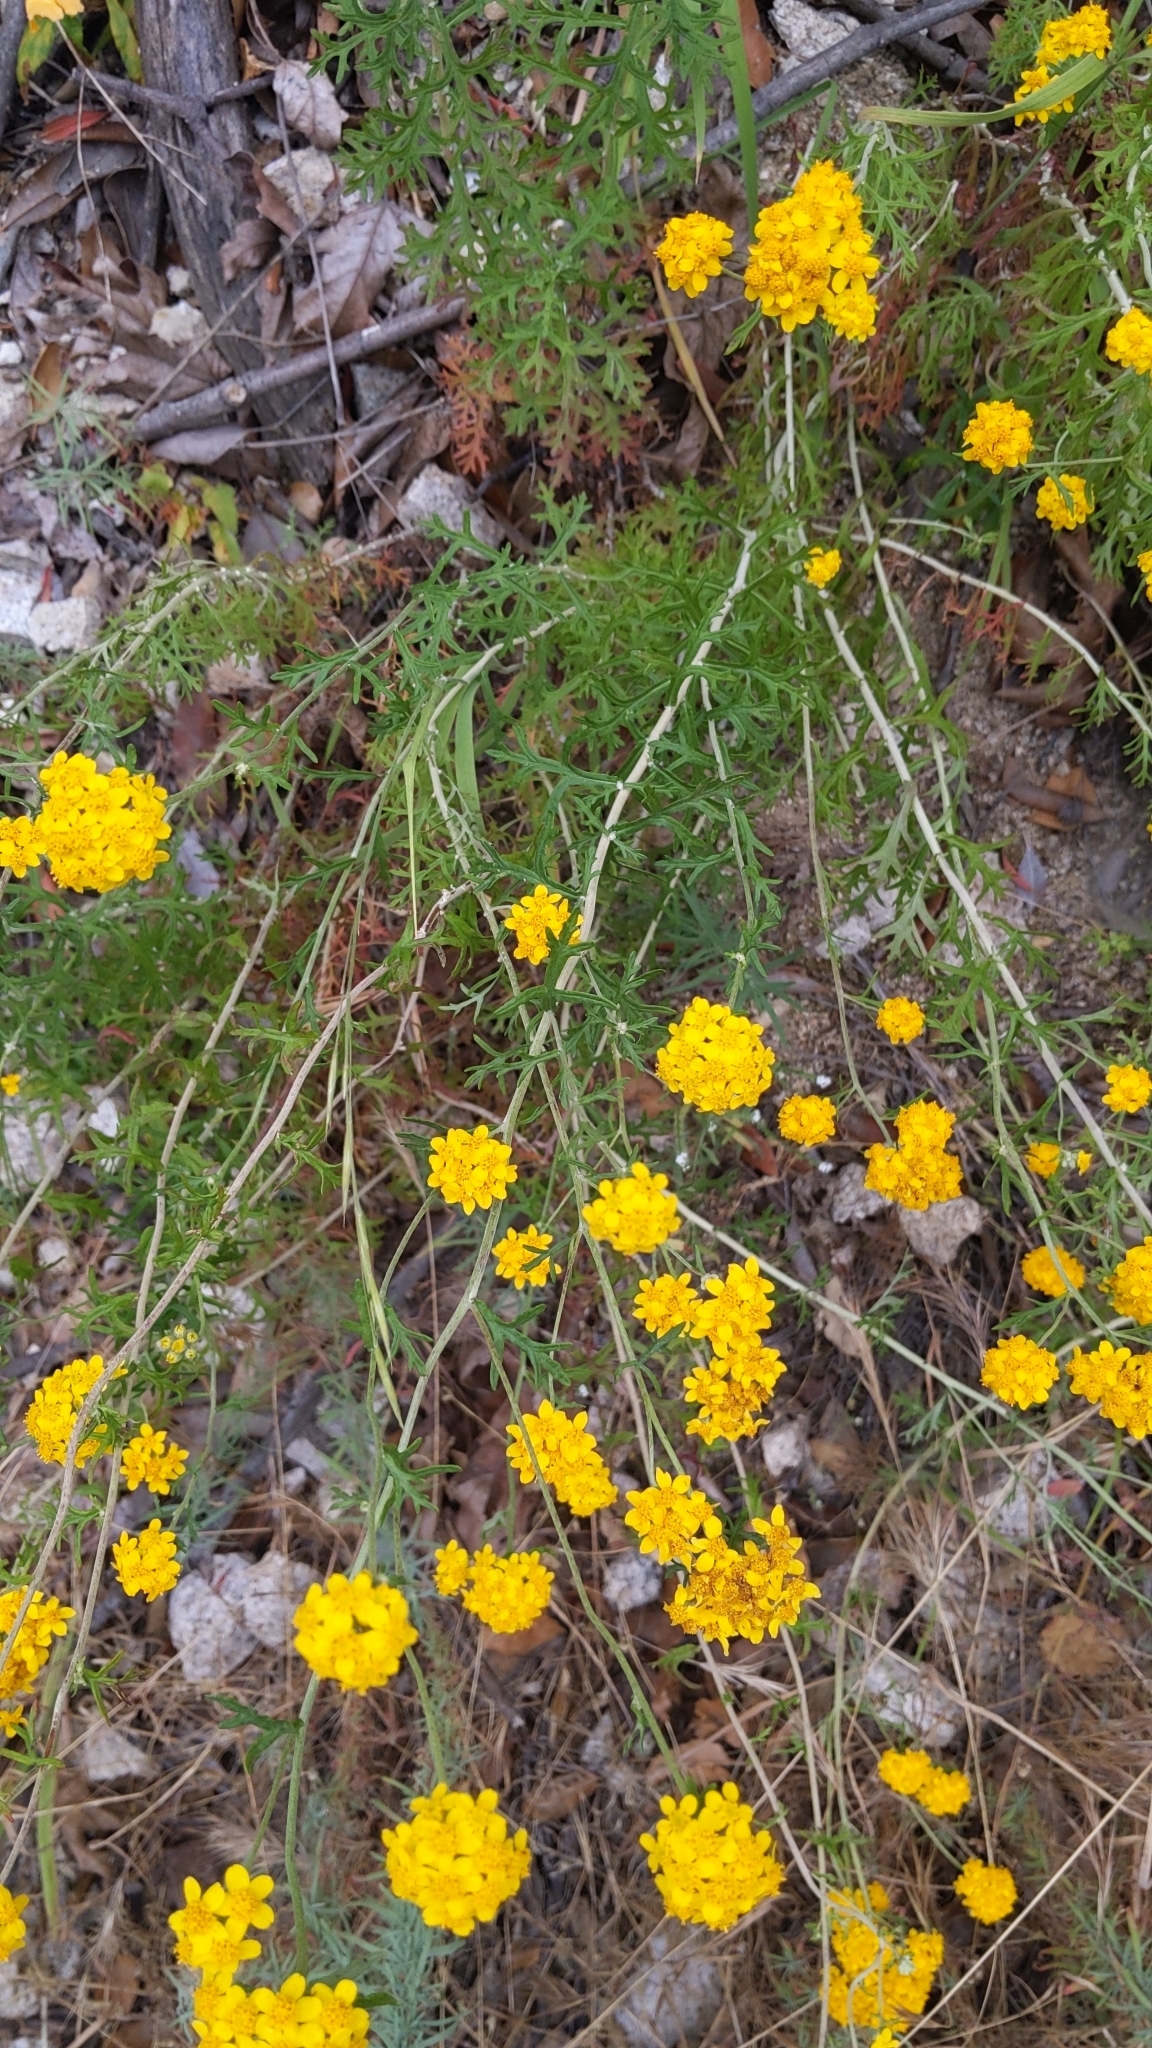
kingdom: Plantae
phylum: Tracheophyta
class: Magnoliopsida
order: Asterales
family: Asteraceae
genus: Eriophyllum
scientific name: Eriophyllum confertiflorum
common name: Golden-yarrow
